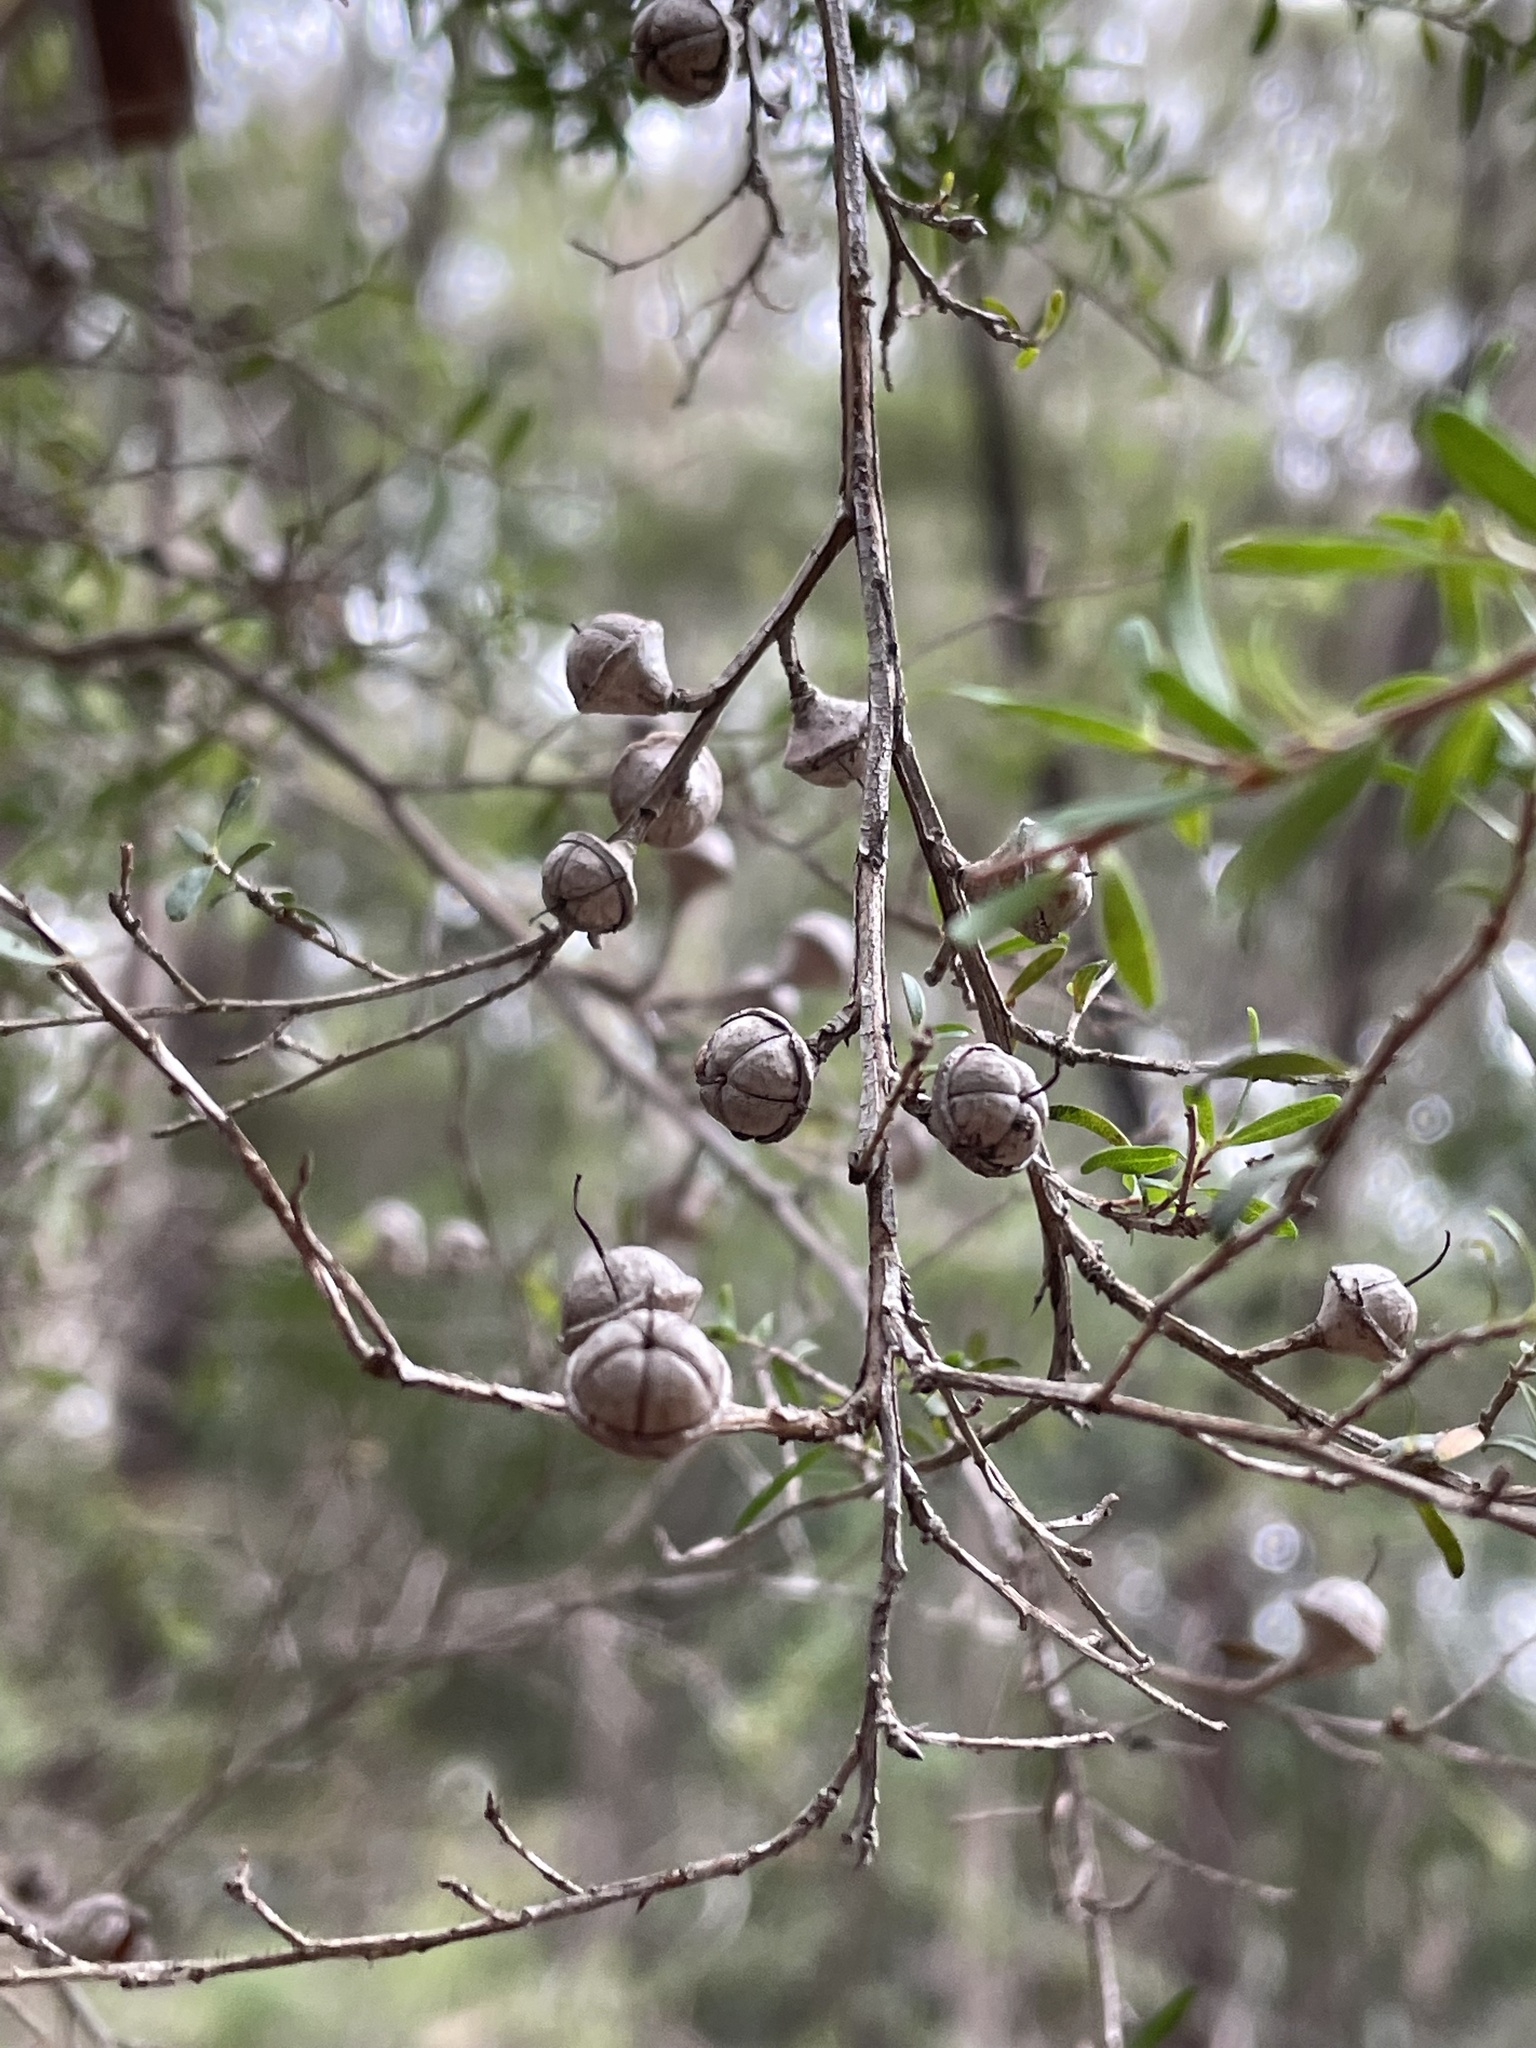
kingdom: Plantae
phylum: Tracheophyta
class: Magnoliopsida
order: Myrtales
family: Myrtaceae
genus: Leptospermum
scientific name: Leptospermum polygalifolium
